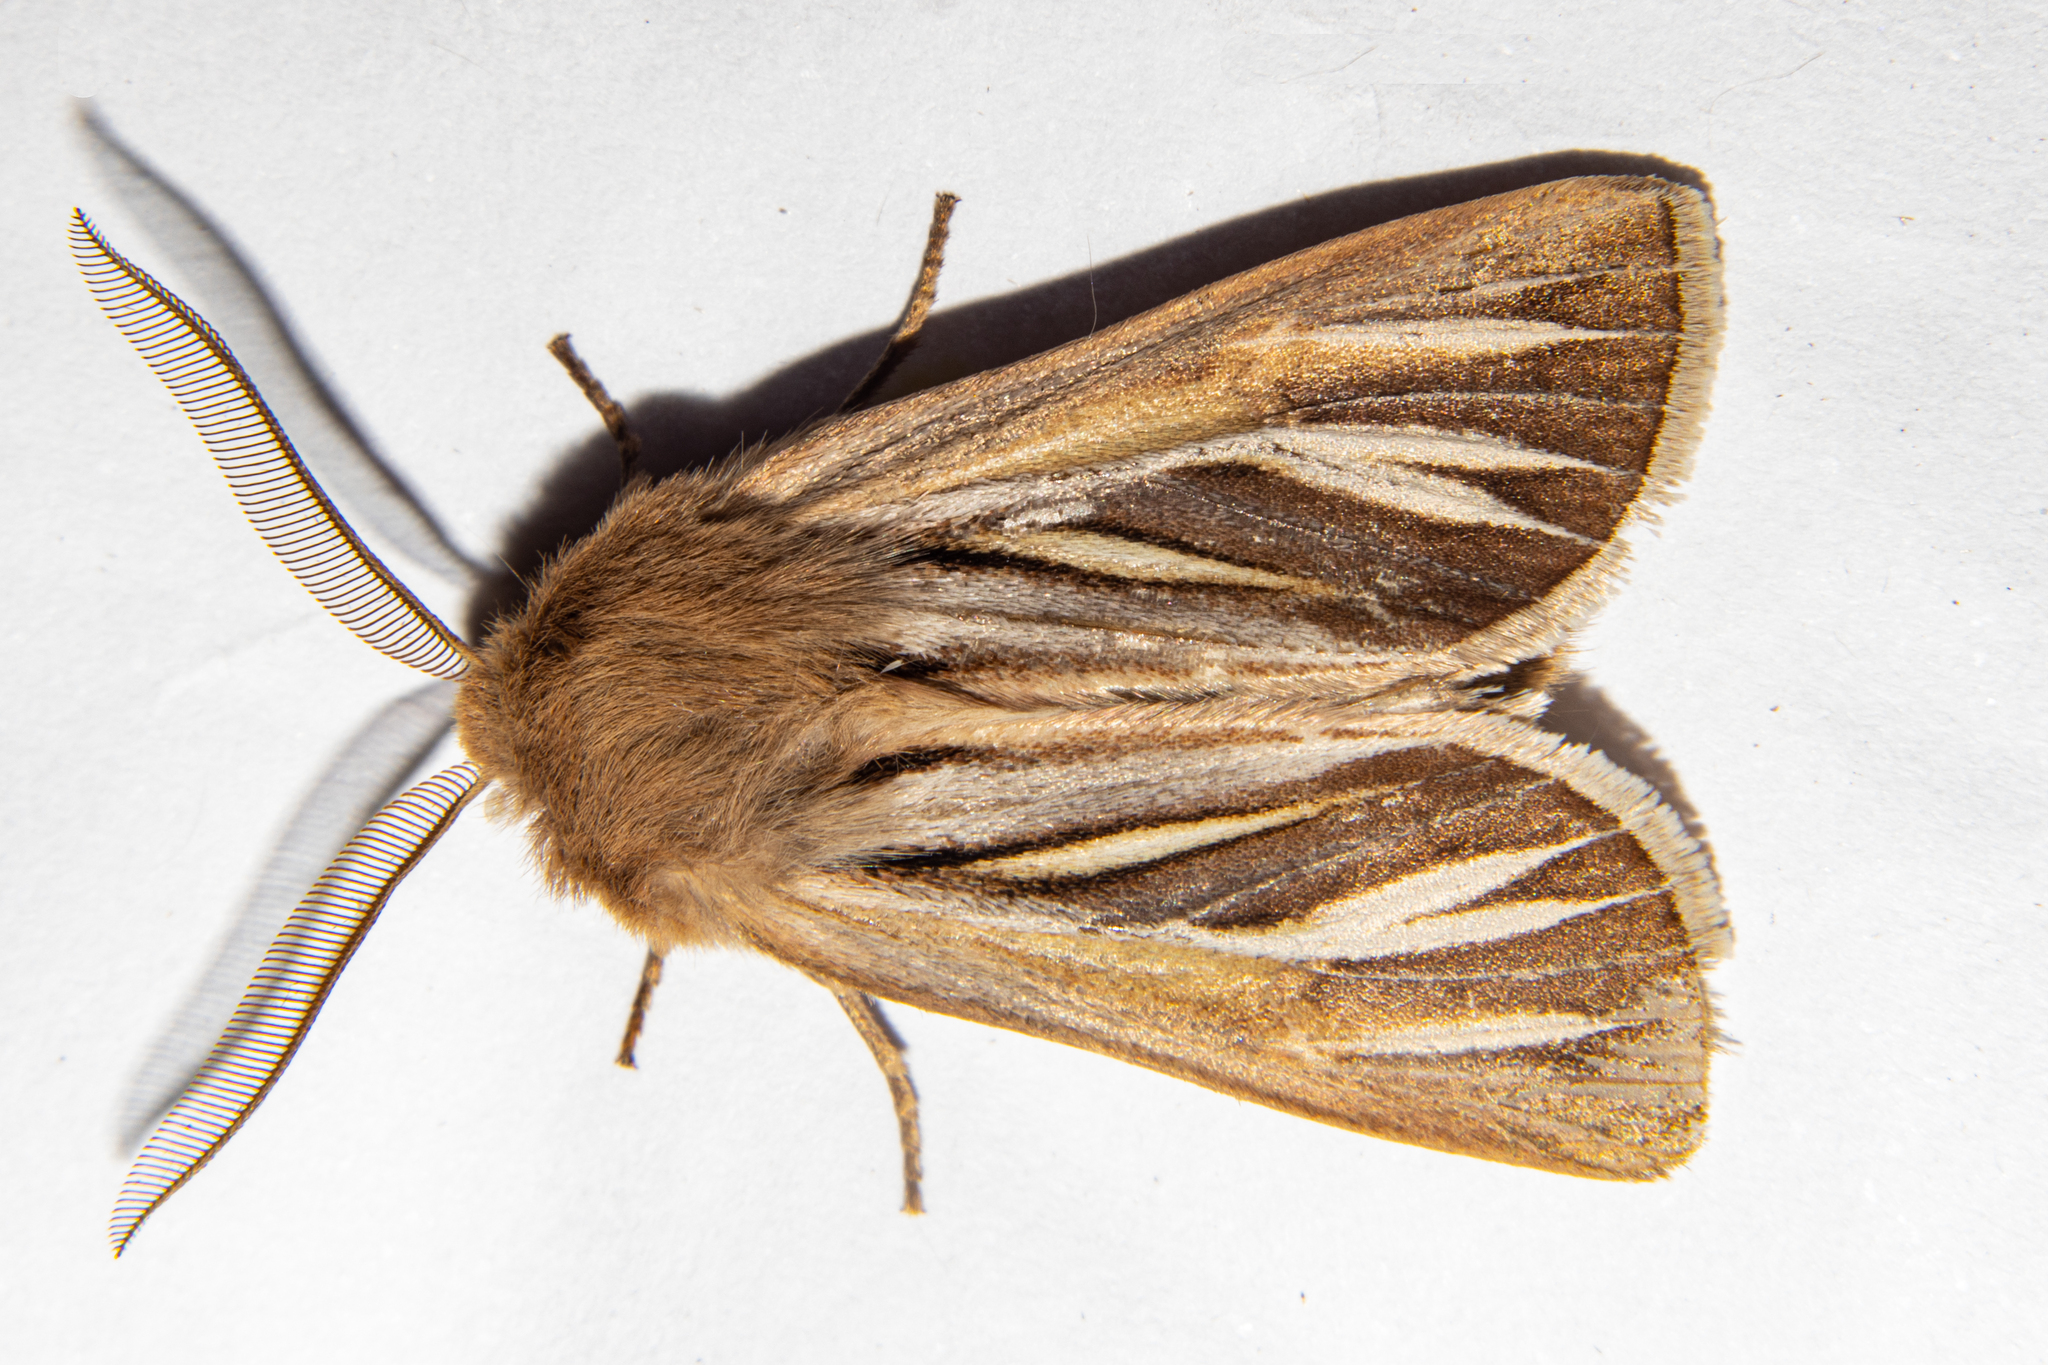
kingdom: Animalia
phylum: Arthropoda
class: Insecta
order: Lepidoptera
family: Noctuidae
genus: Ichneutica
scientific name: Ichneutica caraunias
